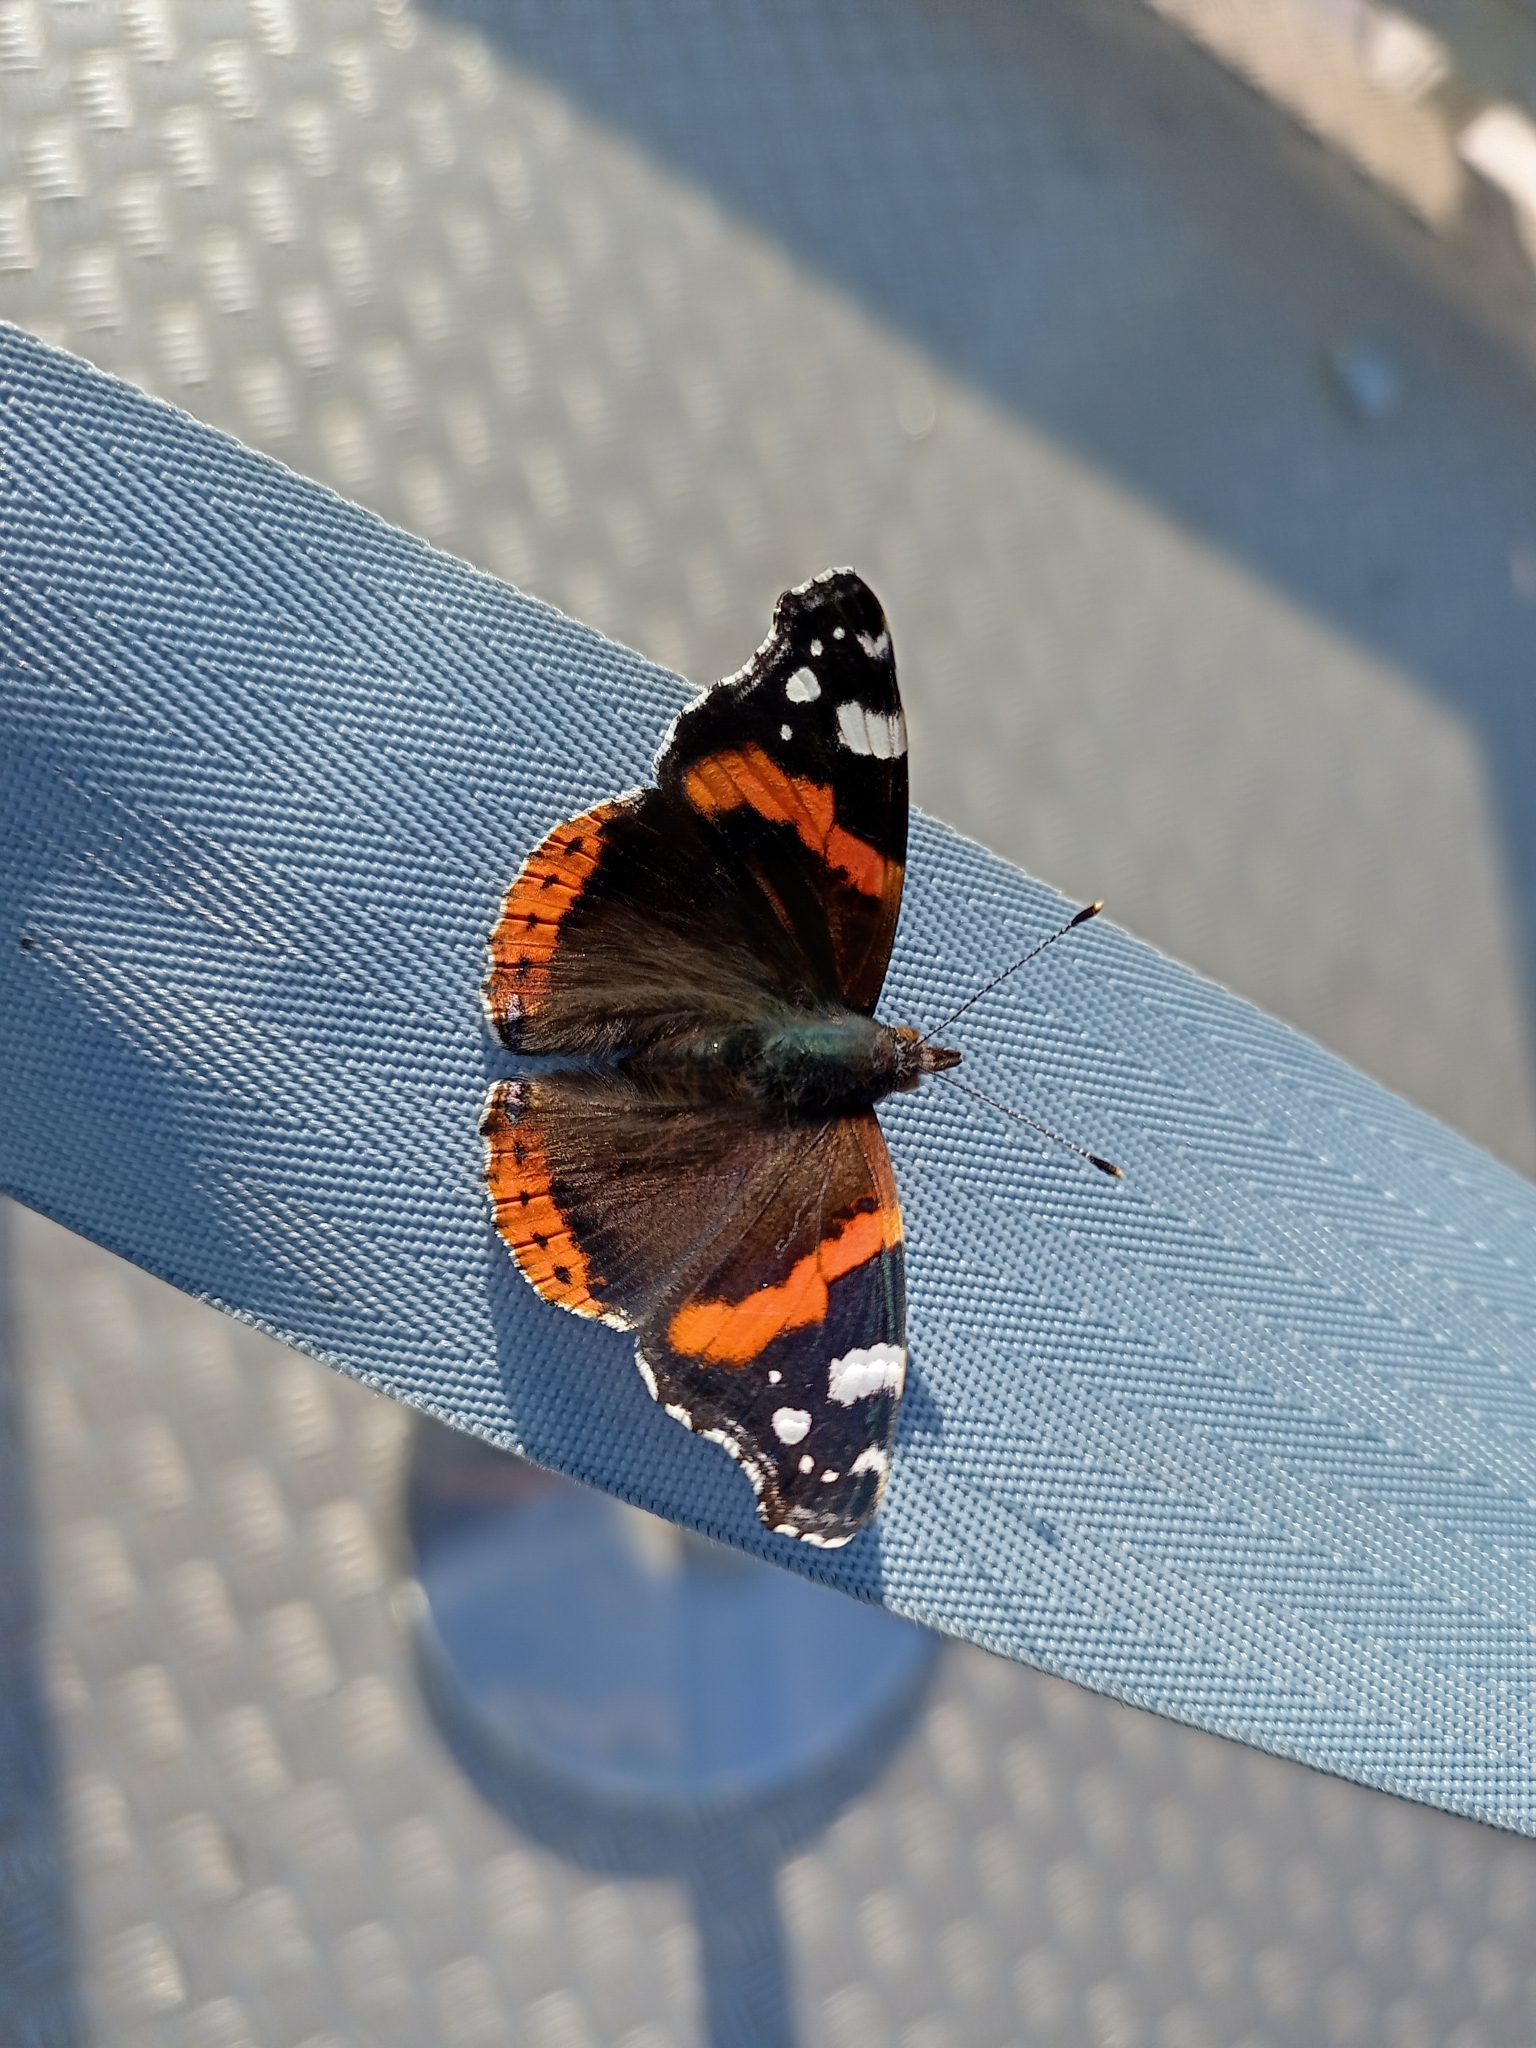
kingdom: Animalia
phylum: Arthropoda
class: Insecta
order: Lepidoptera
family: Nymphalidae
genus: Vanessa
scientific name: Vanessa atalanta
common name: Red admiral
